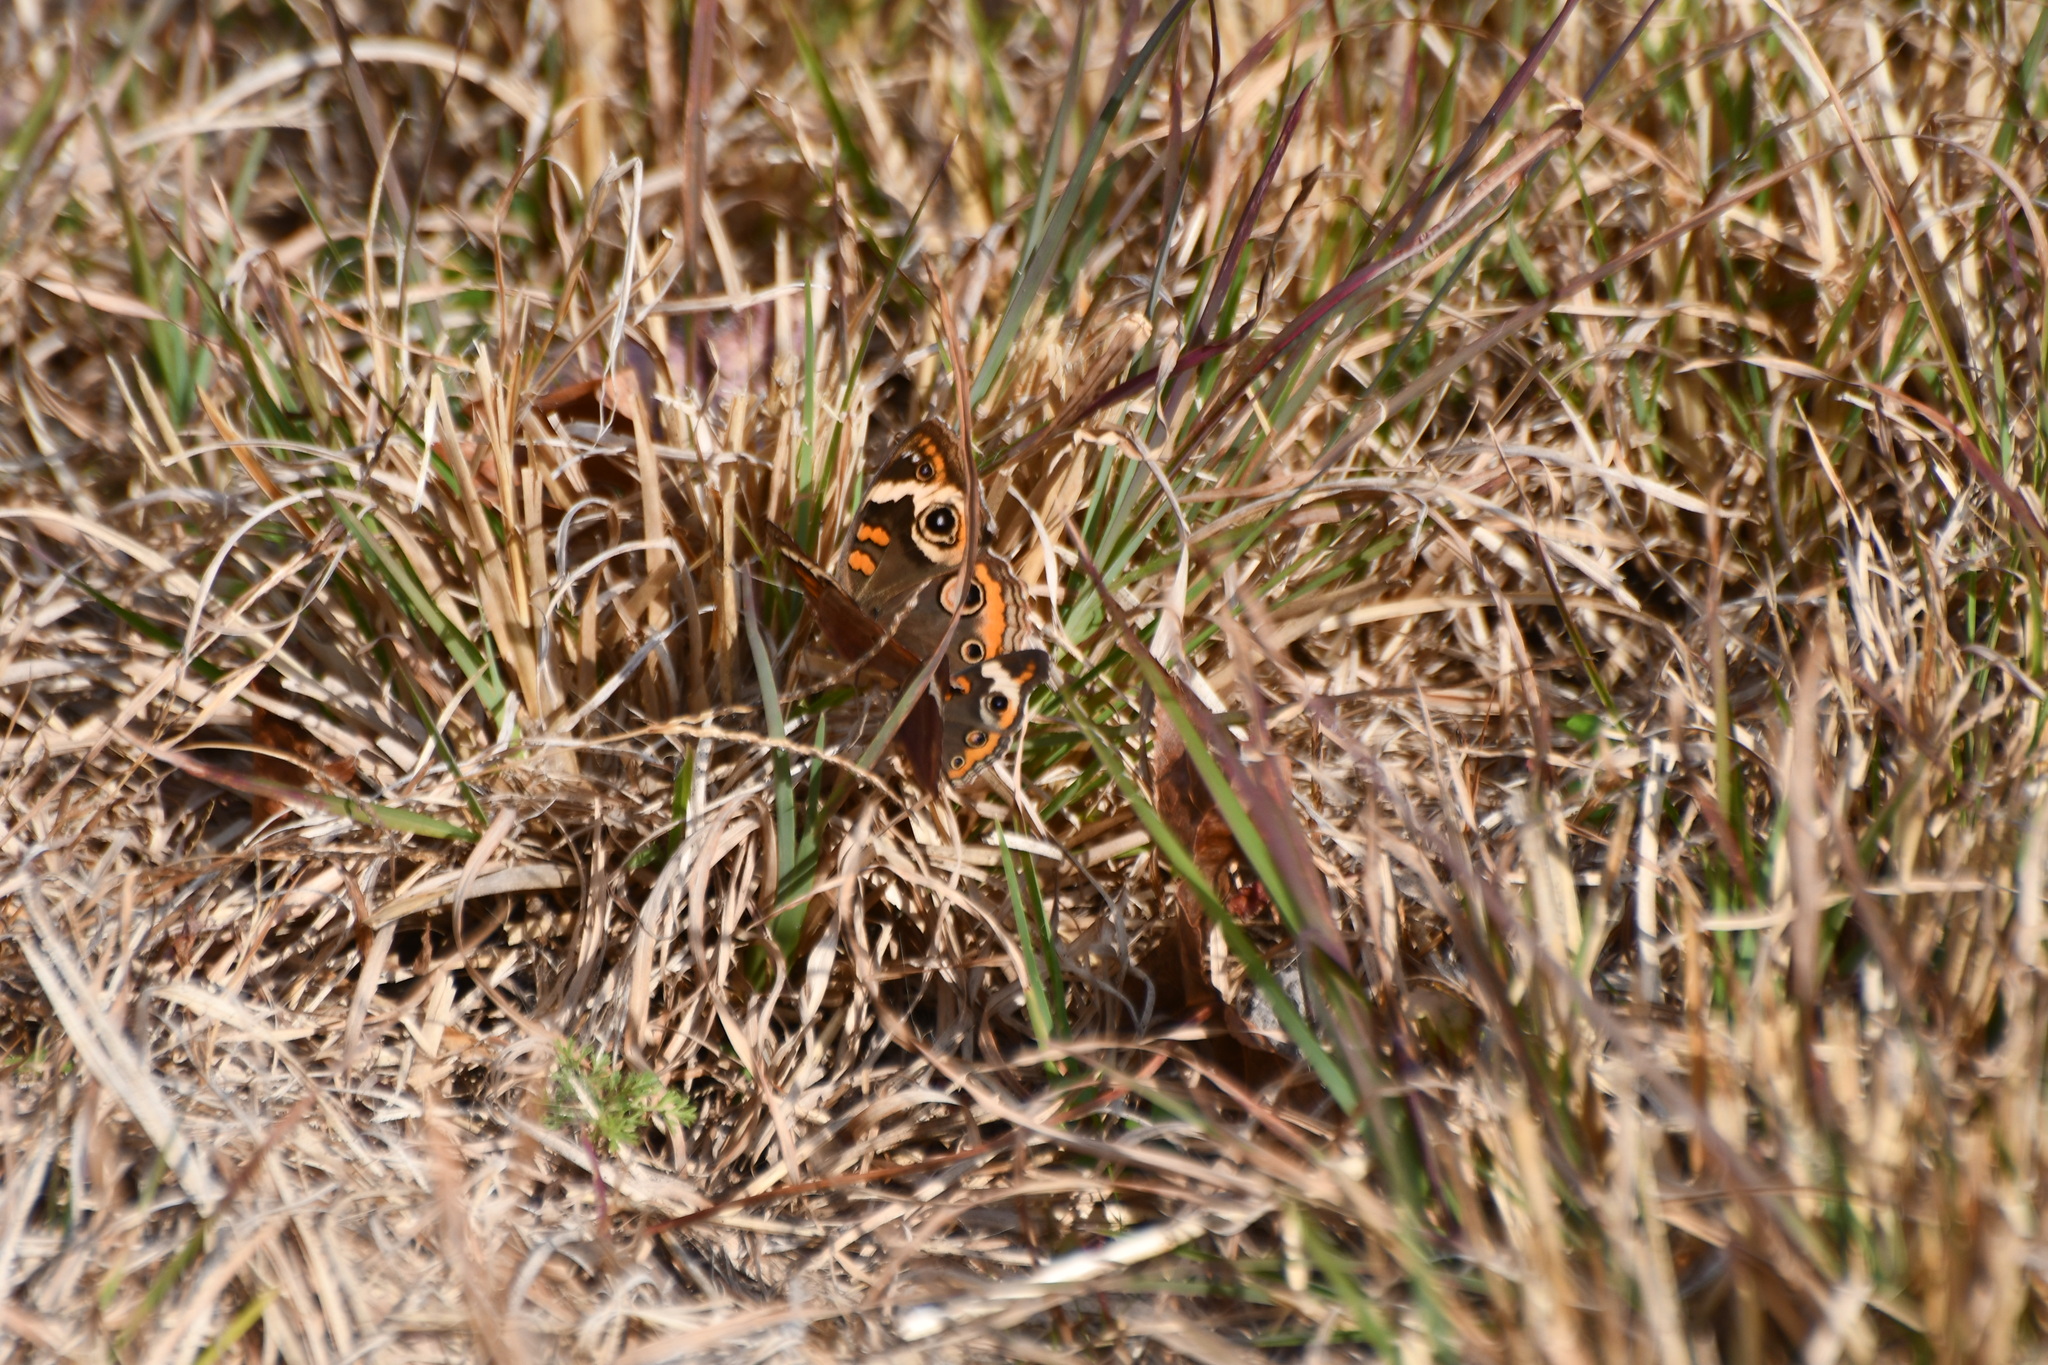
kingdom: Animalia
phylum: Arthropoda
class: Insecta
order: Lepidoptera
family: Nymphalidae
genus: Junonia
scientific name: Junonia coenia
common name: Common buckeye
